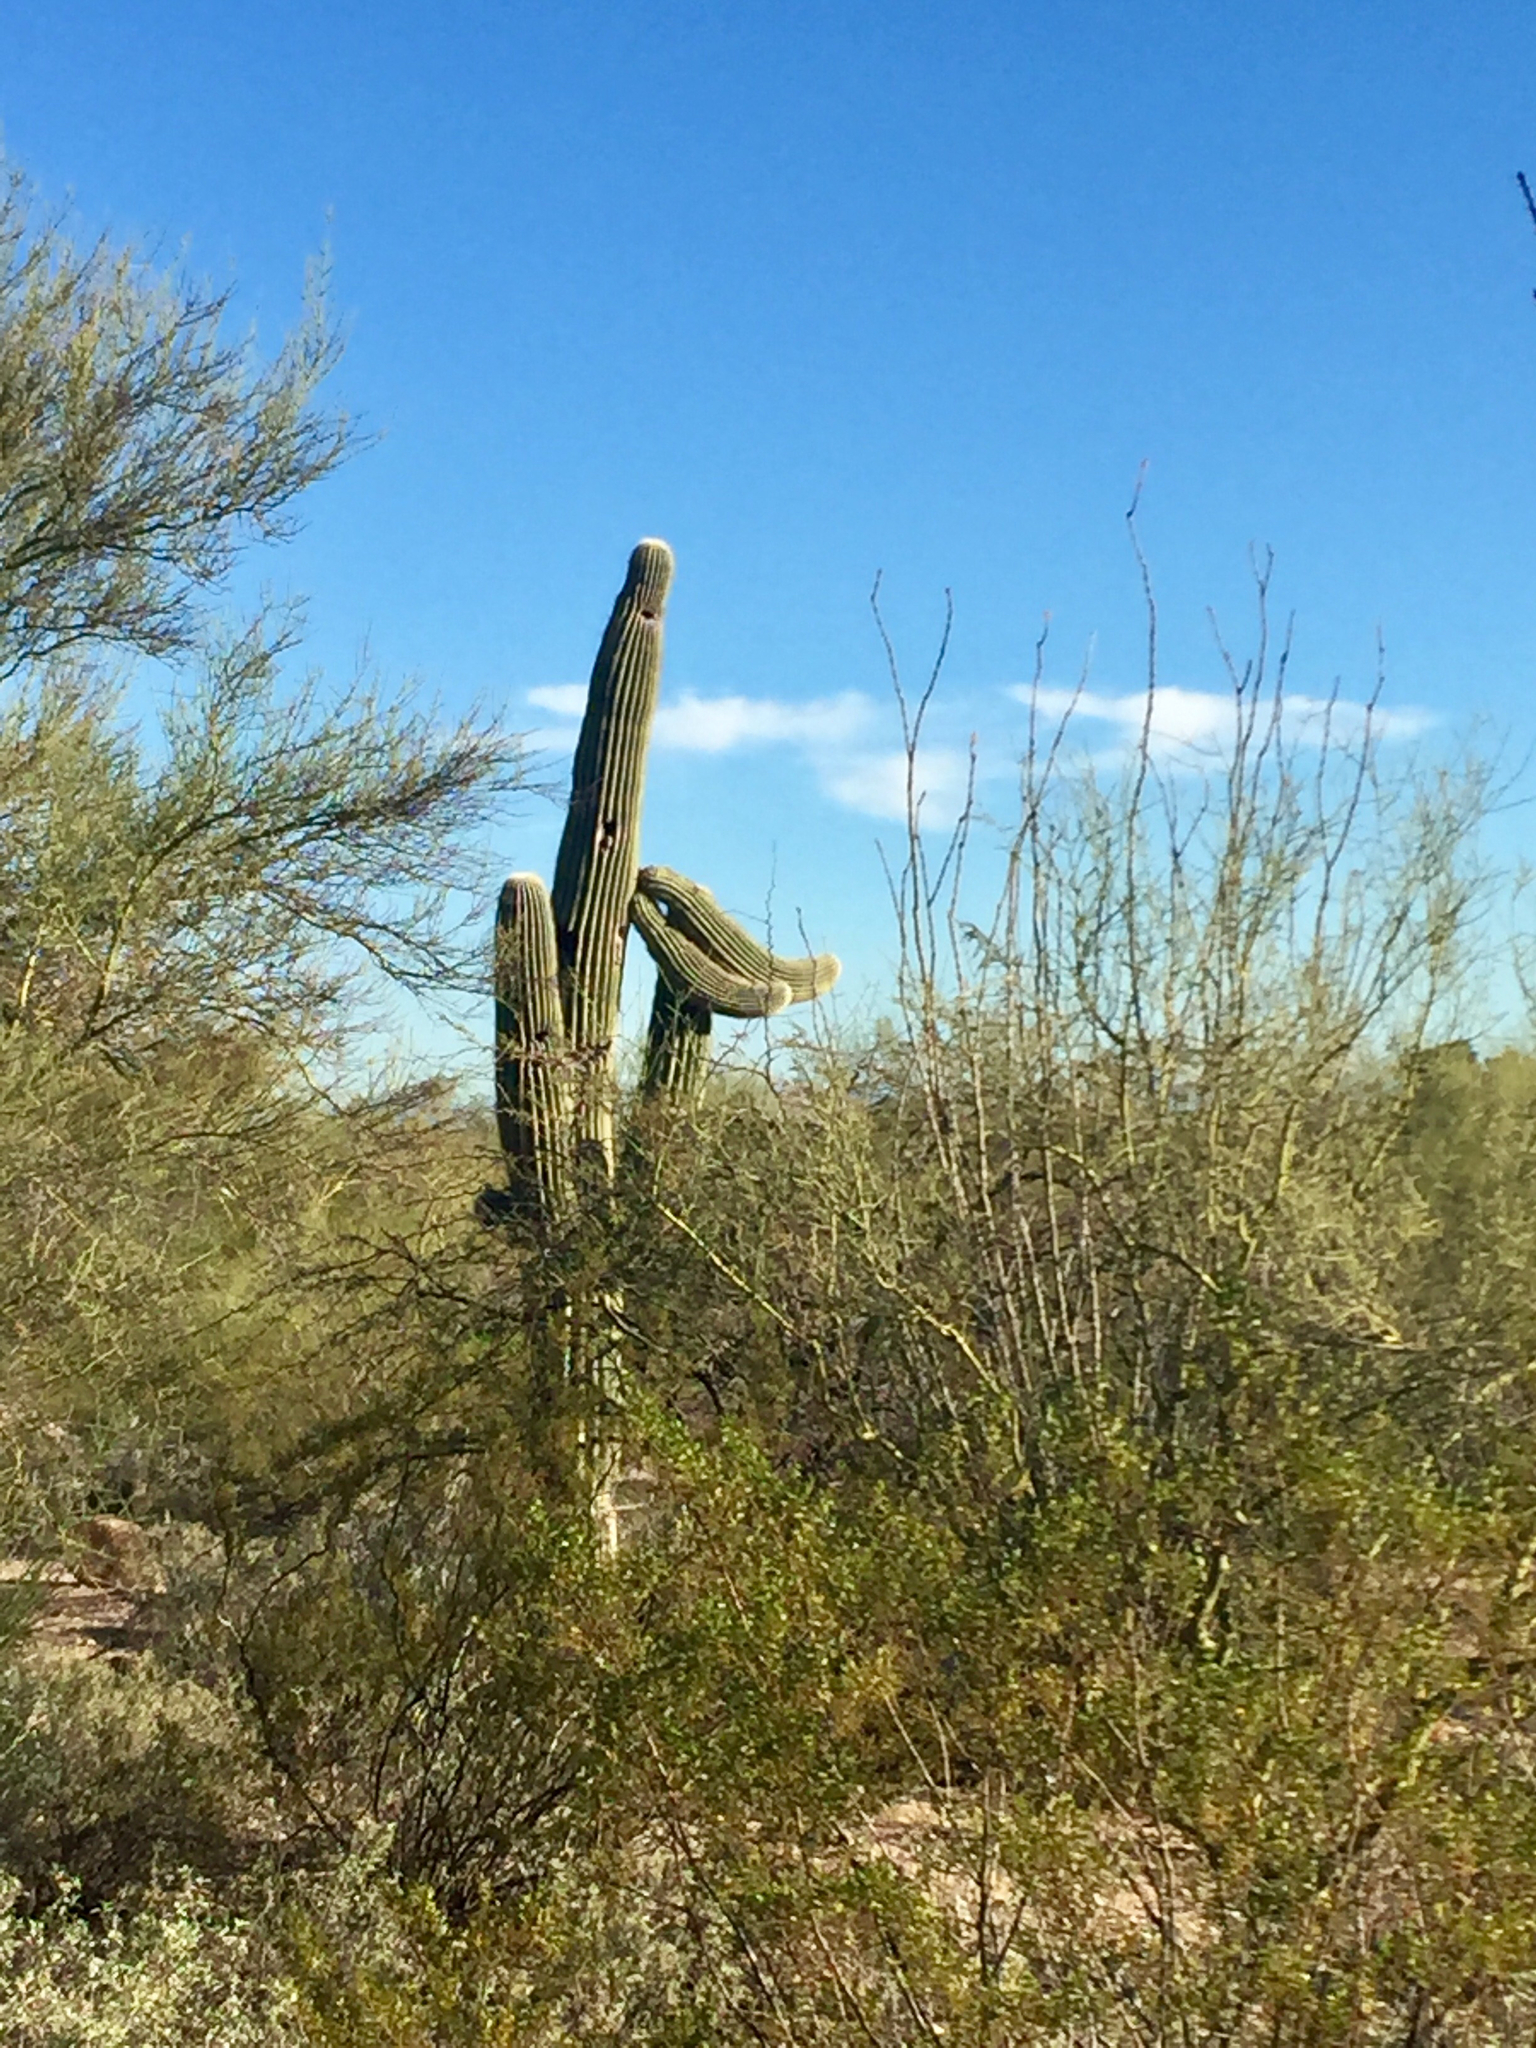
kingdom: Plantae
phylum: Tracheophyta
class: Magnoliopsida
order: Caryophyllales
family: Cactaceae
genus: Carnegiea
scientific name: Carnegiea gigantea
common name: Saguaro
